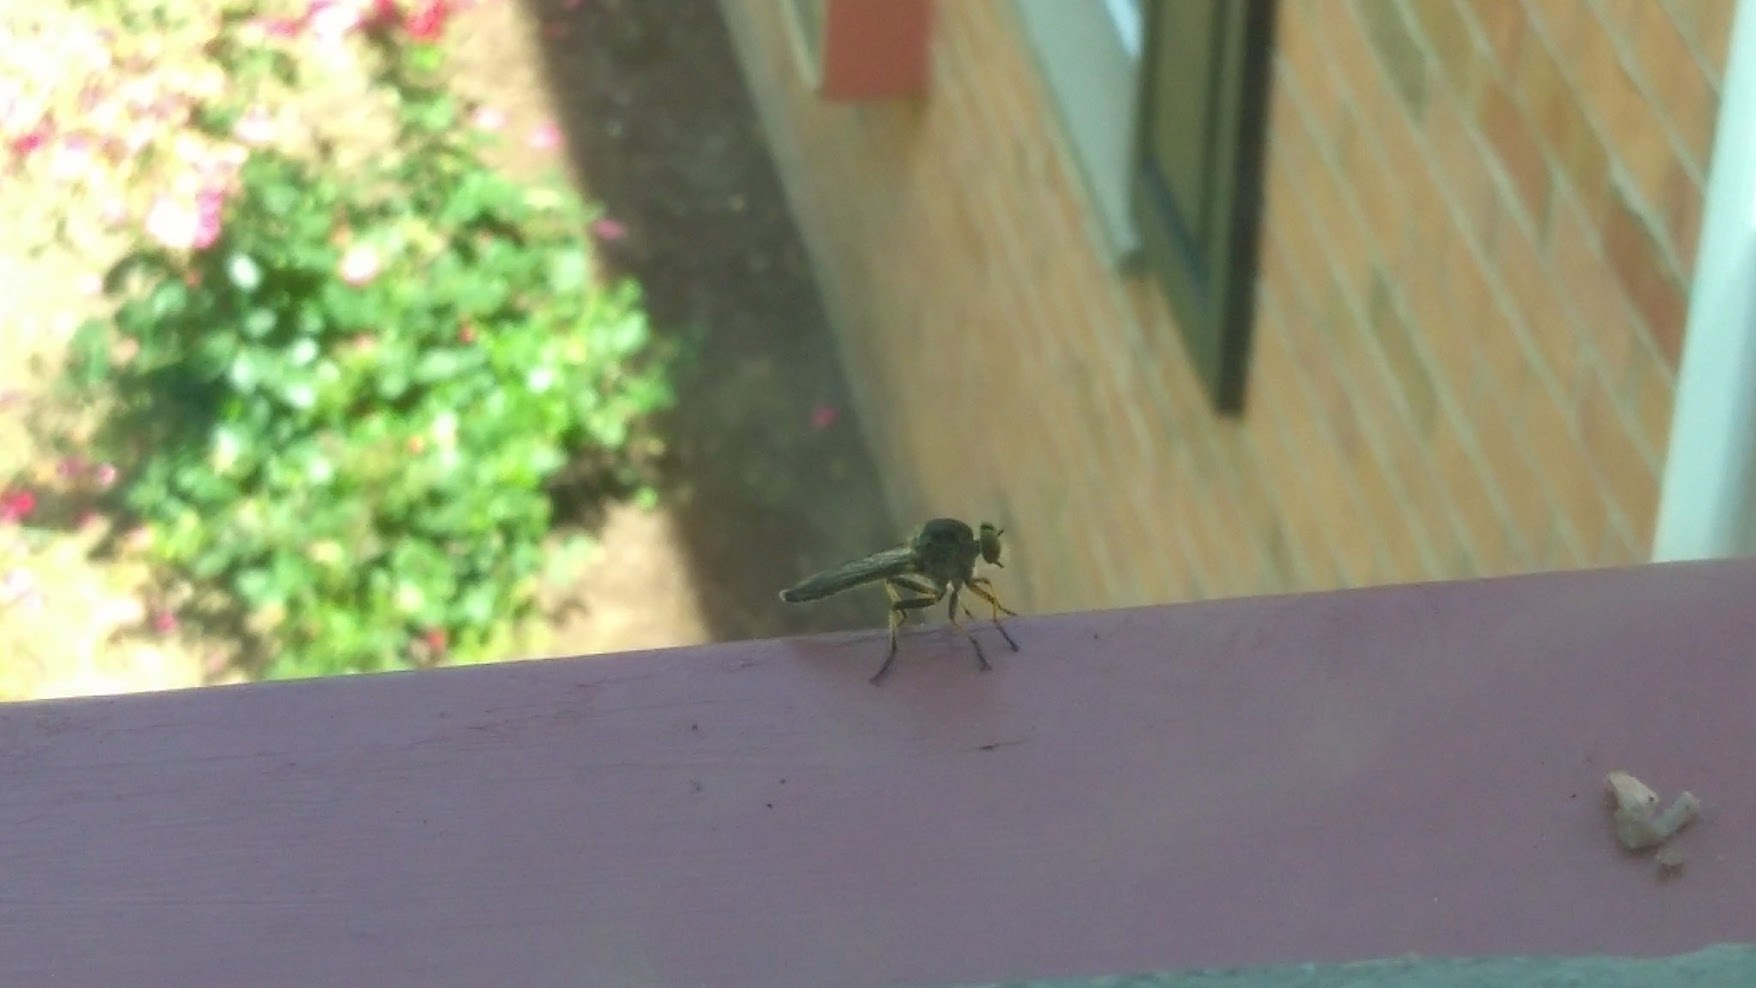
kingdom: Animalia
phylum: Arthropoda
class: Insecta
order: Diptera
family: Asilidae
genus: Ommatius
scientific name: Ommatius
